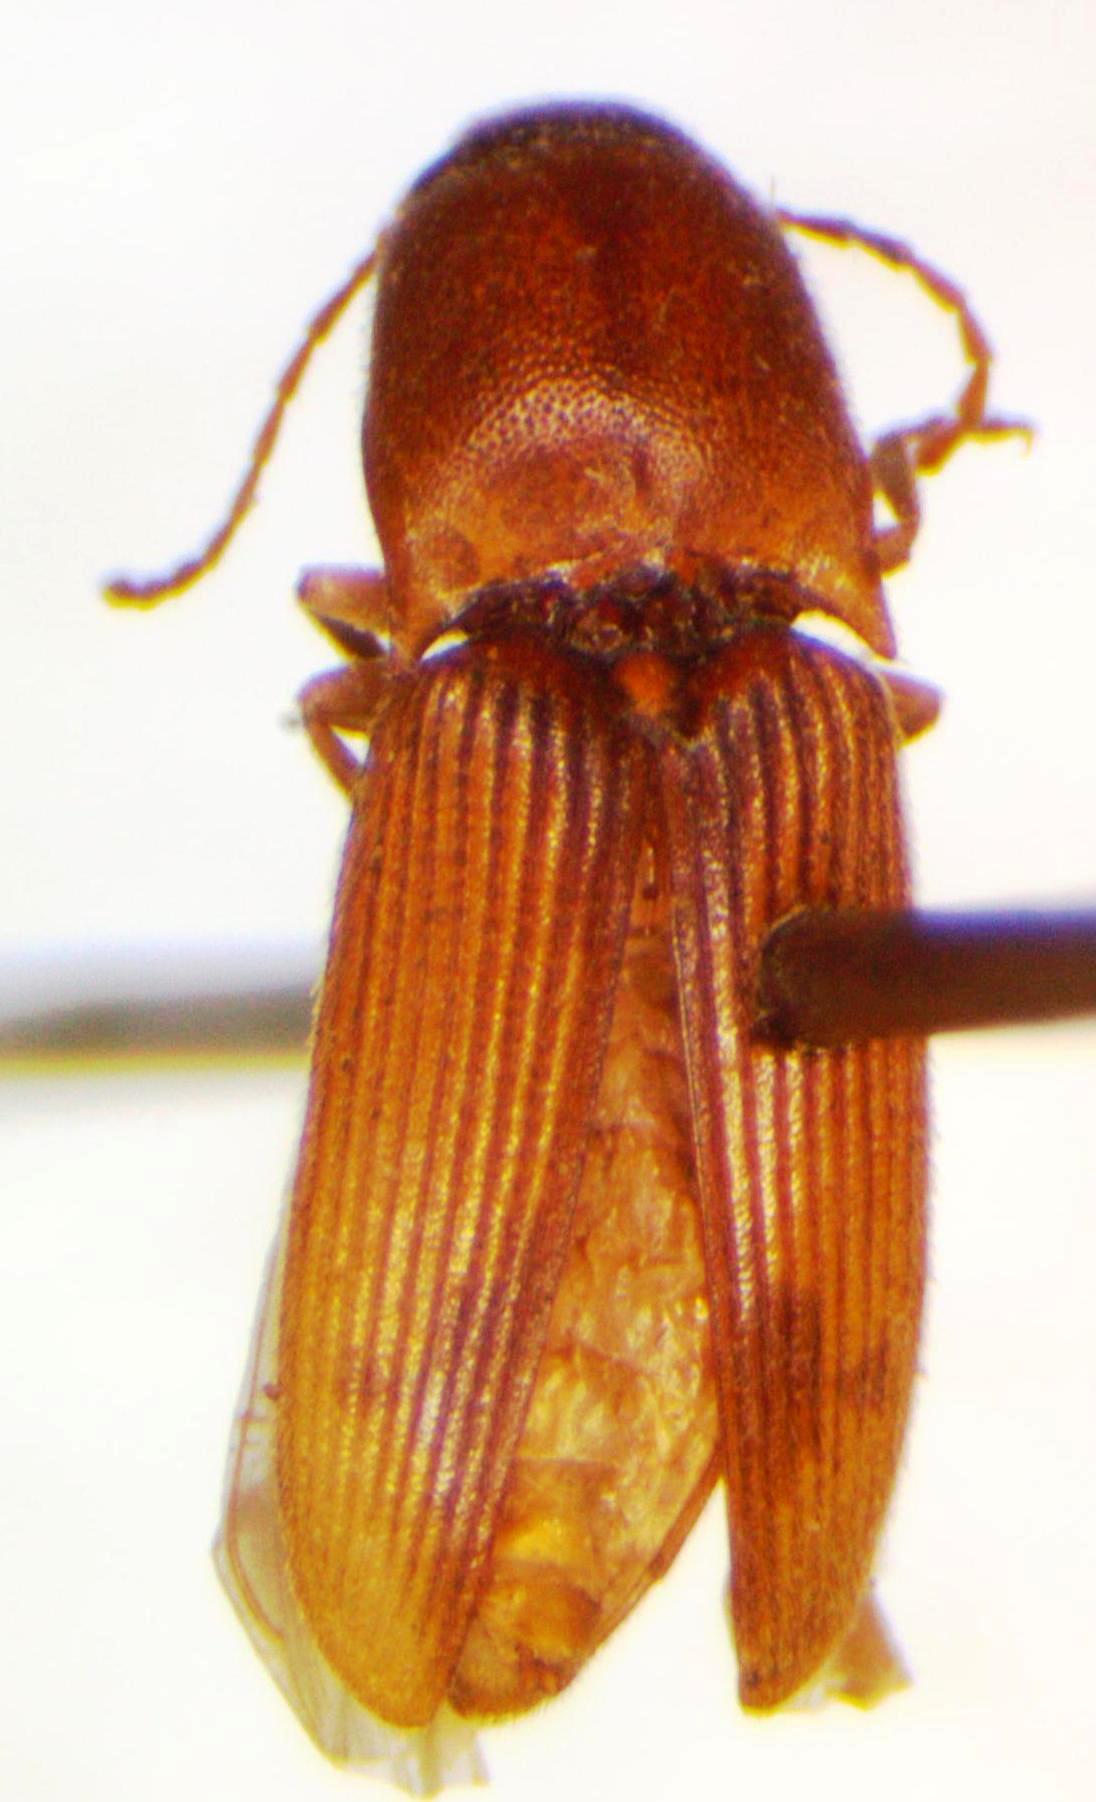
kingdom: Animalia
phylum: Arthropoda
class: Insecta
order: Coleoptera
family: Elateridae
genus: Monocrepidius
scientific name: Monocrepidius vartiani
